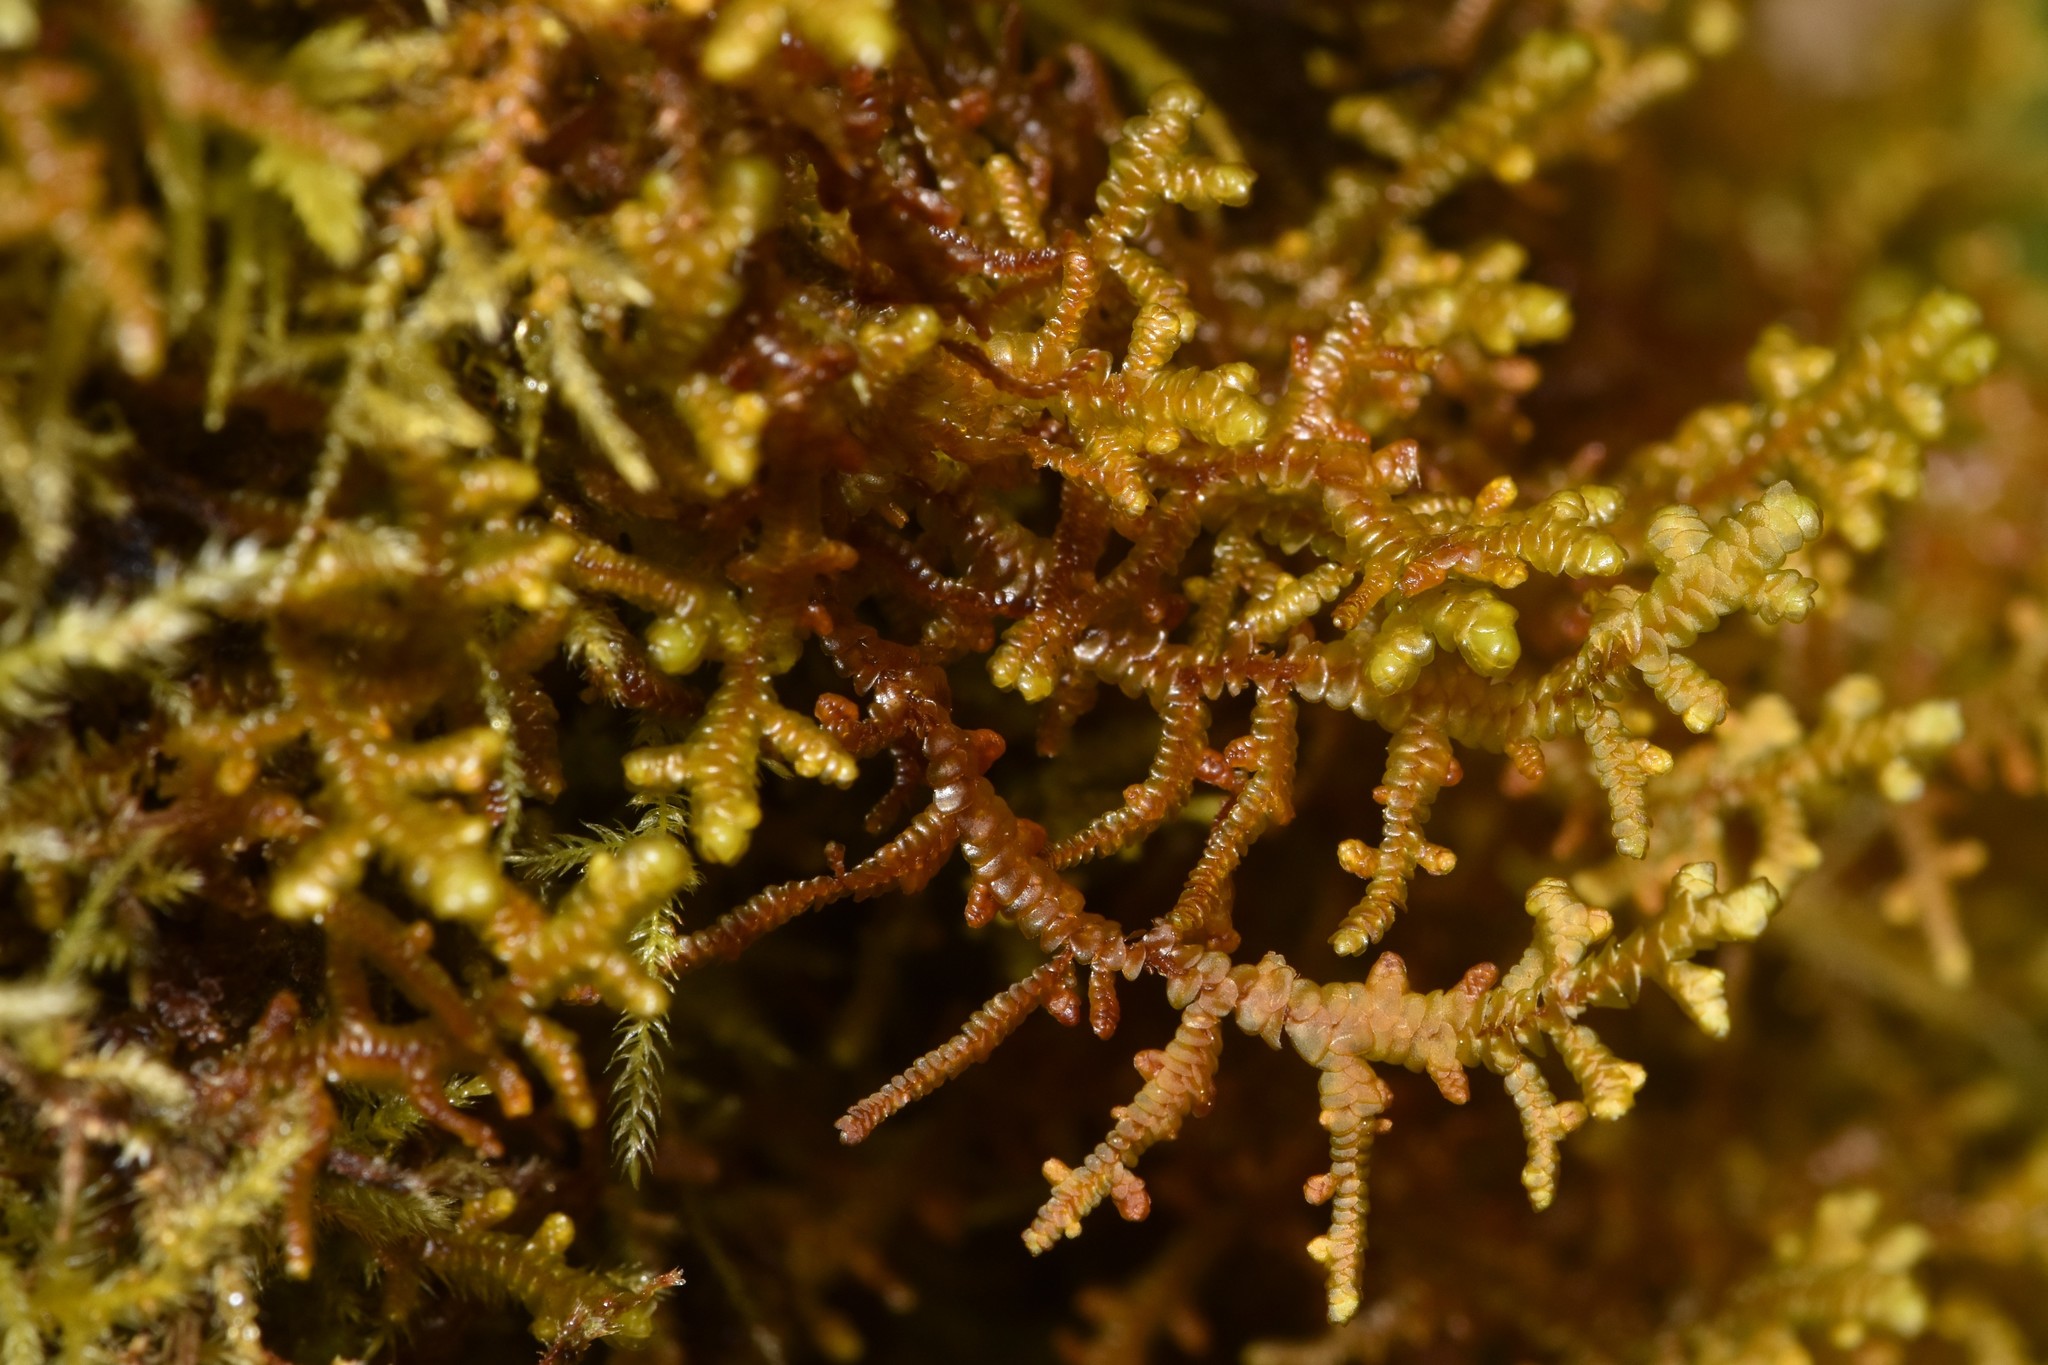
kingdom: Plantae
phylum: Marchantiophyta
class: Jungermanniopsida
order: Porellales
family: Porellaceae
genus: Porella
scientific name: Porella navicularis
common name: Tree ruffle liverwort
